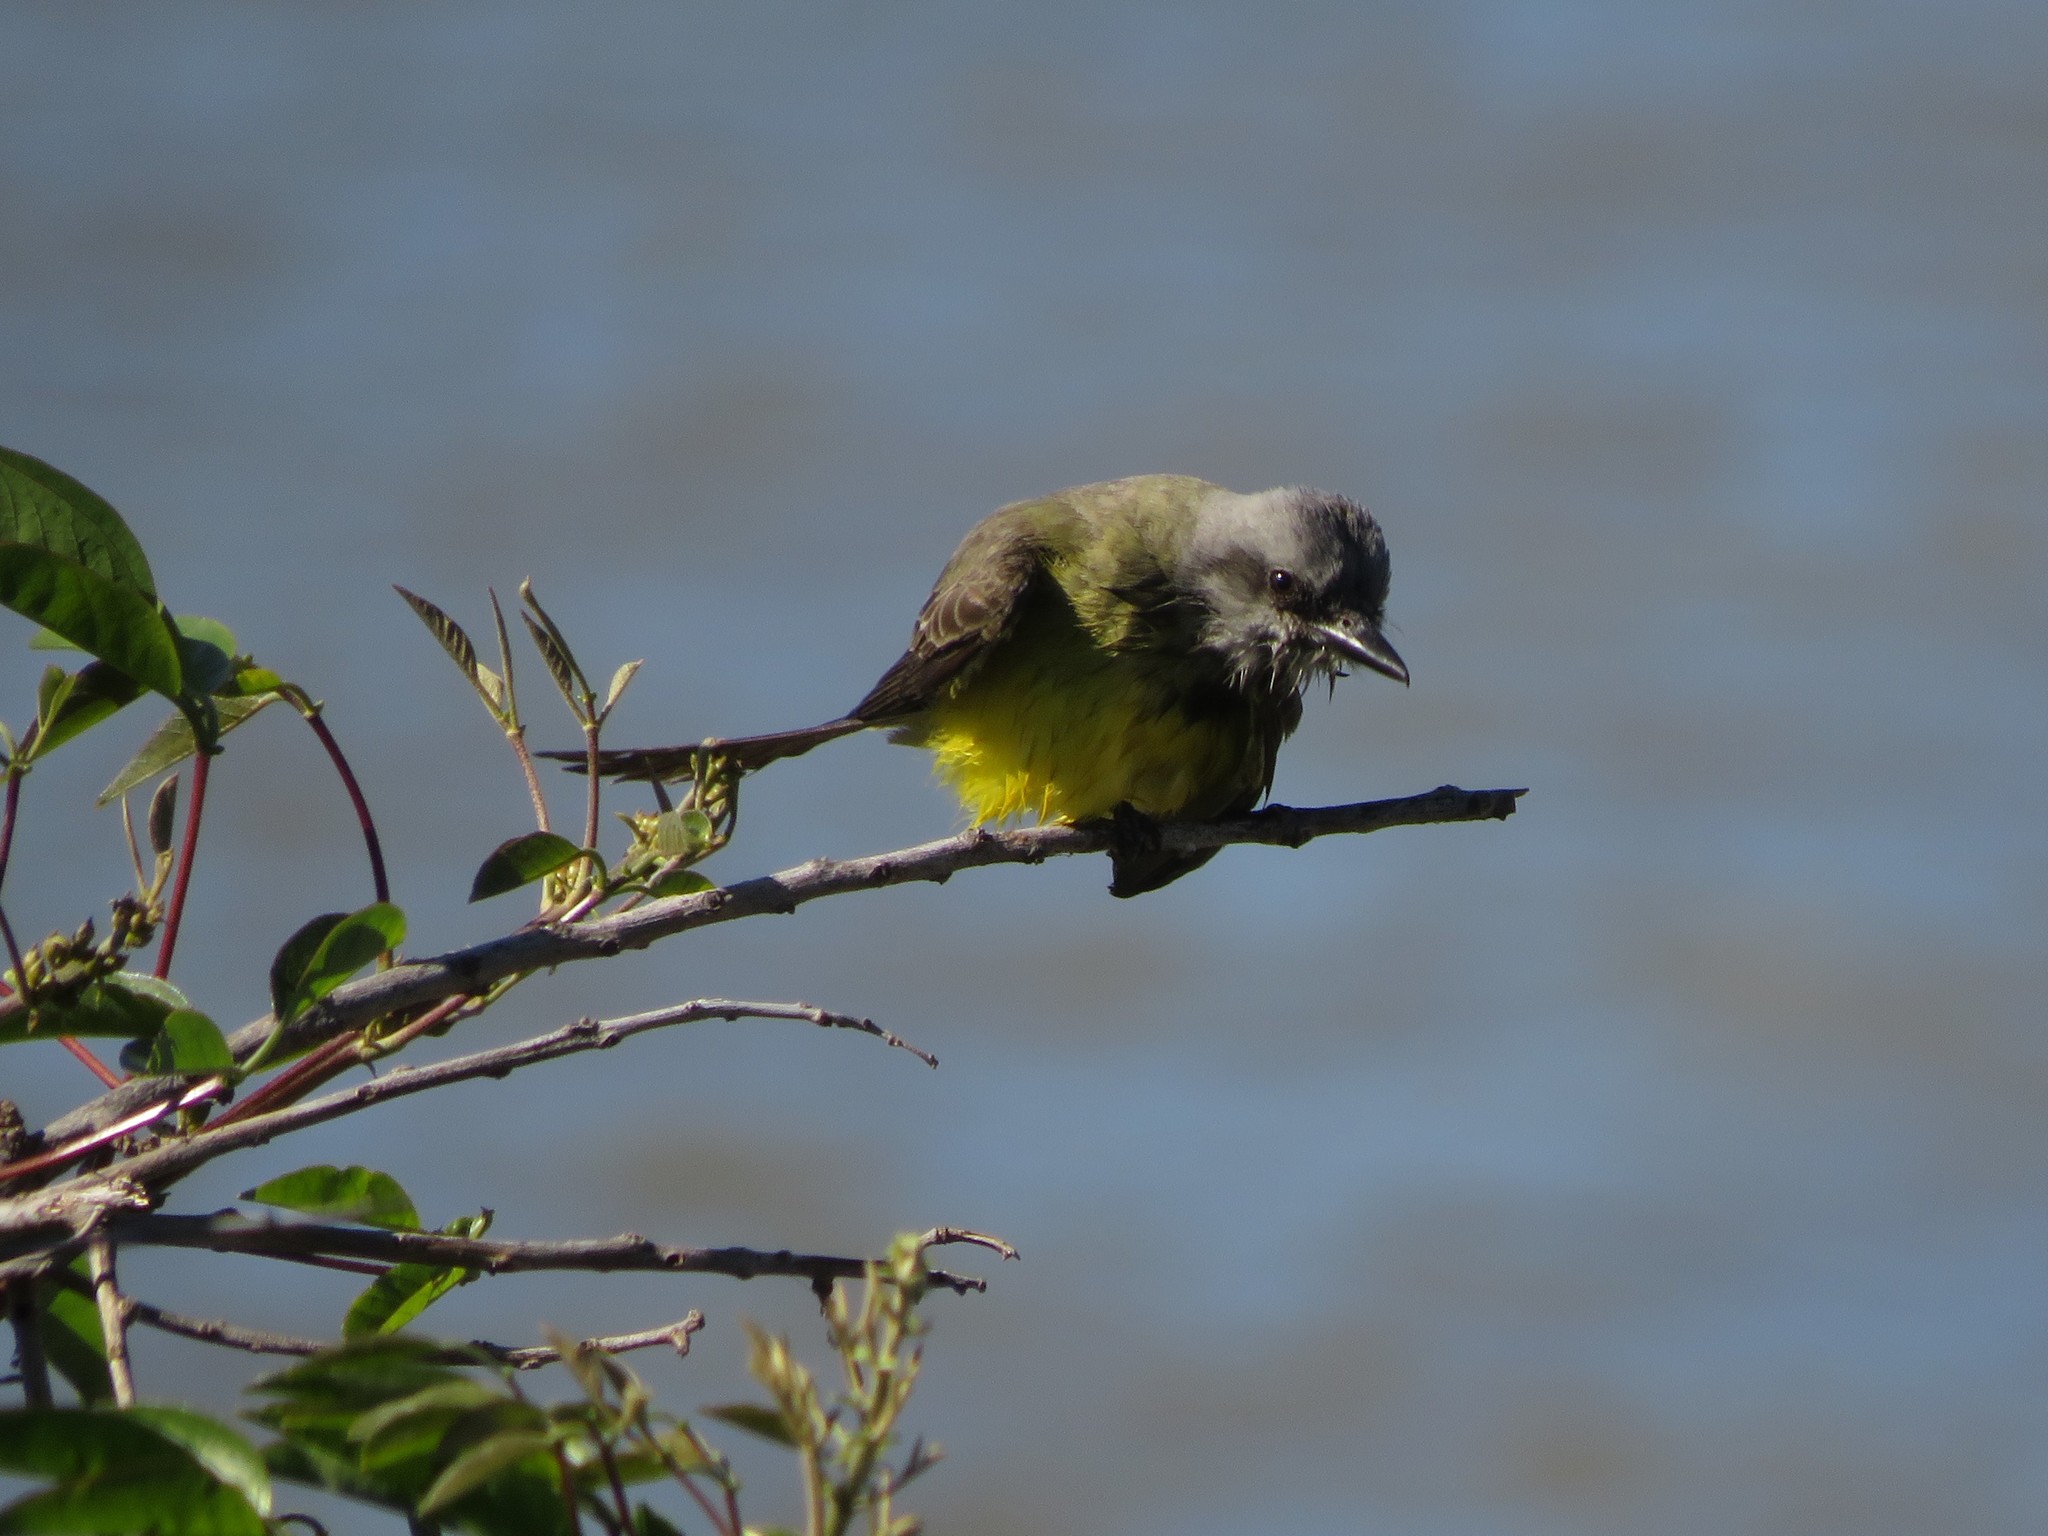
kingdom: Animalia
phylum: Chordata
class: Aves
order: Passeriformes
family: Tyrannidae
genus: Tyrannus
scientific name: Tyrannus melancholicus
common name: Tropical kingbird
